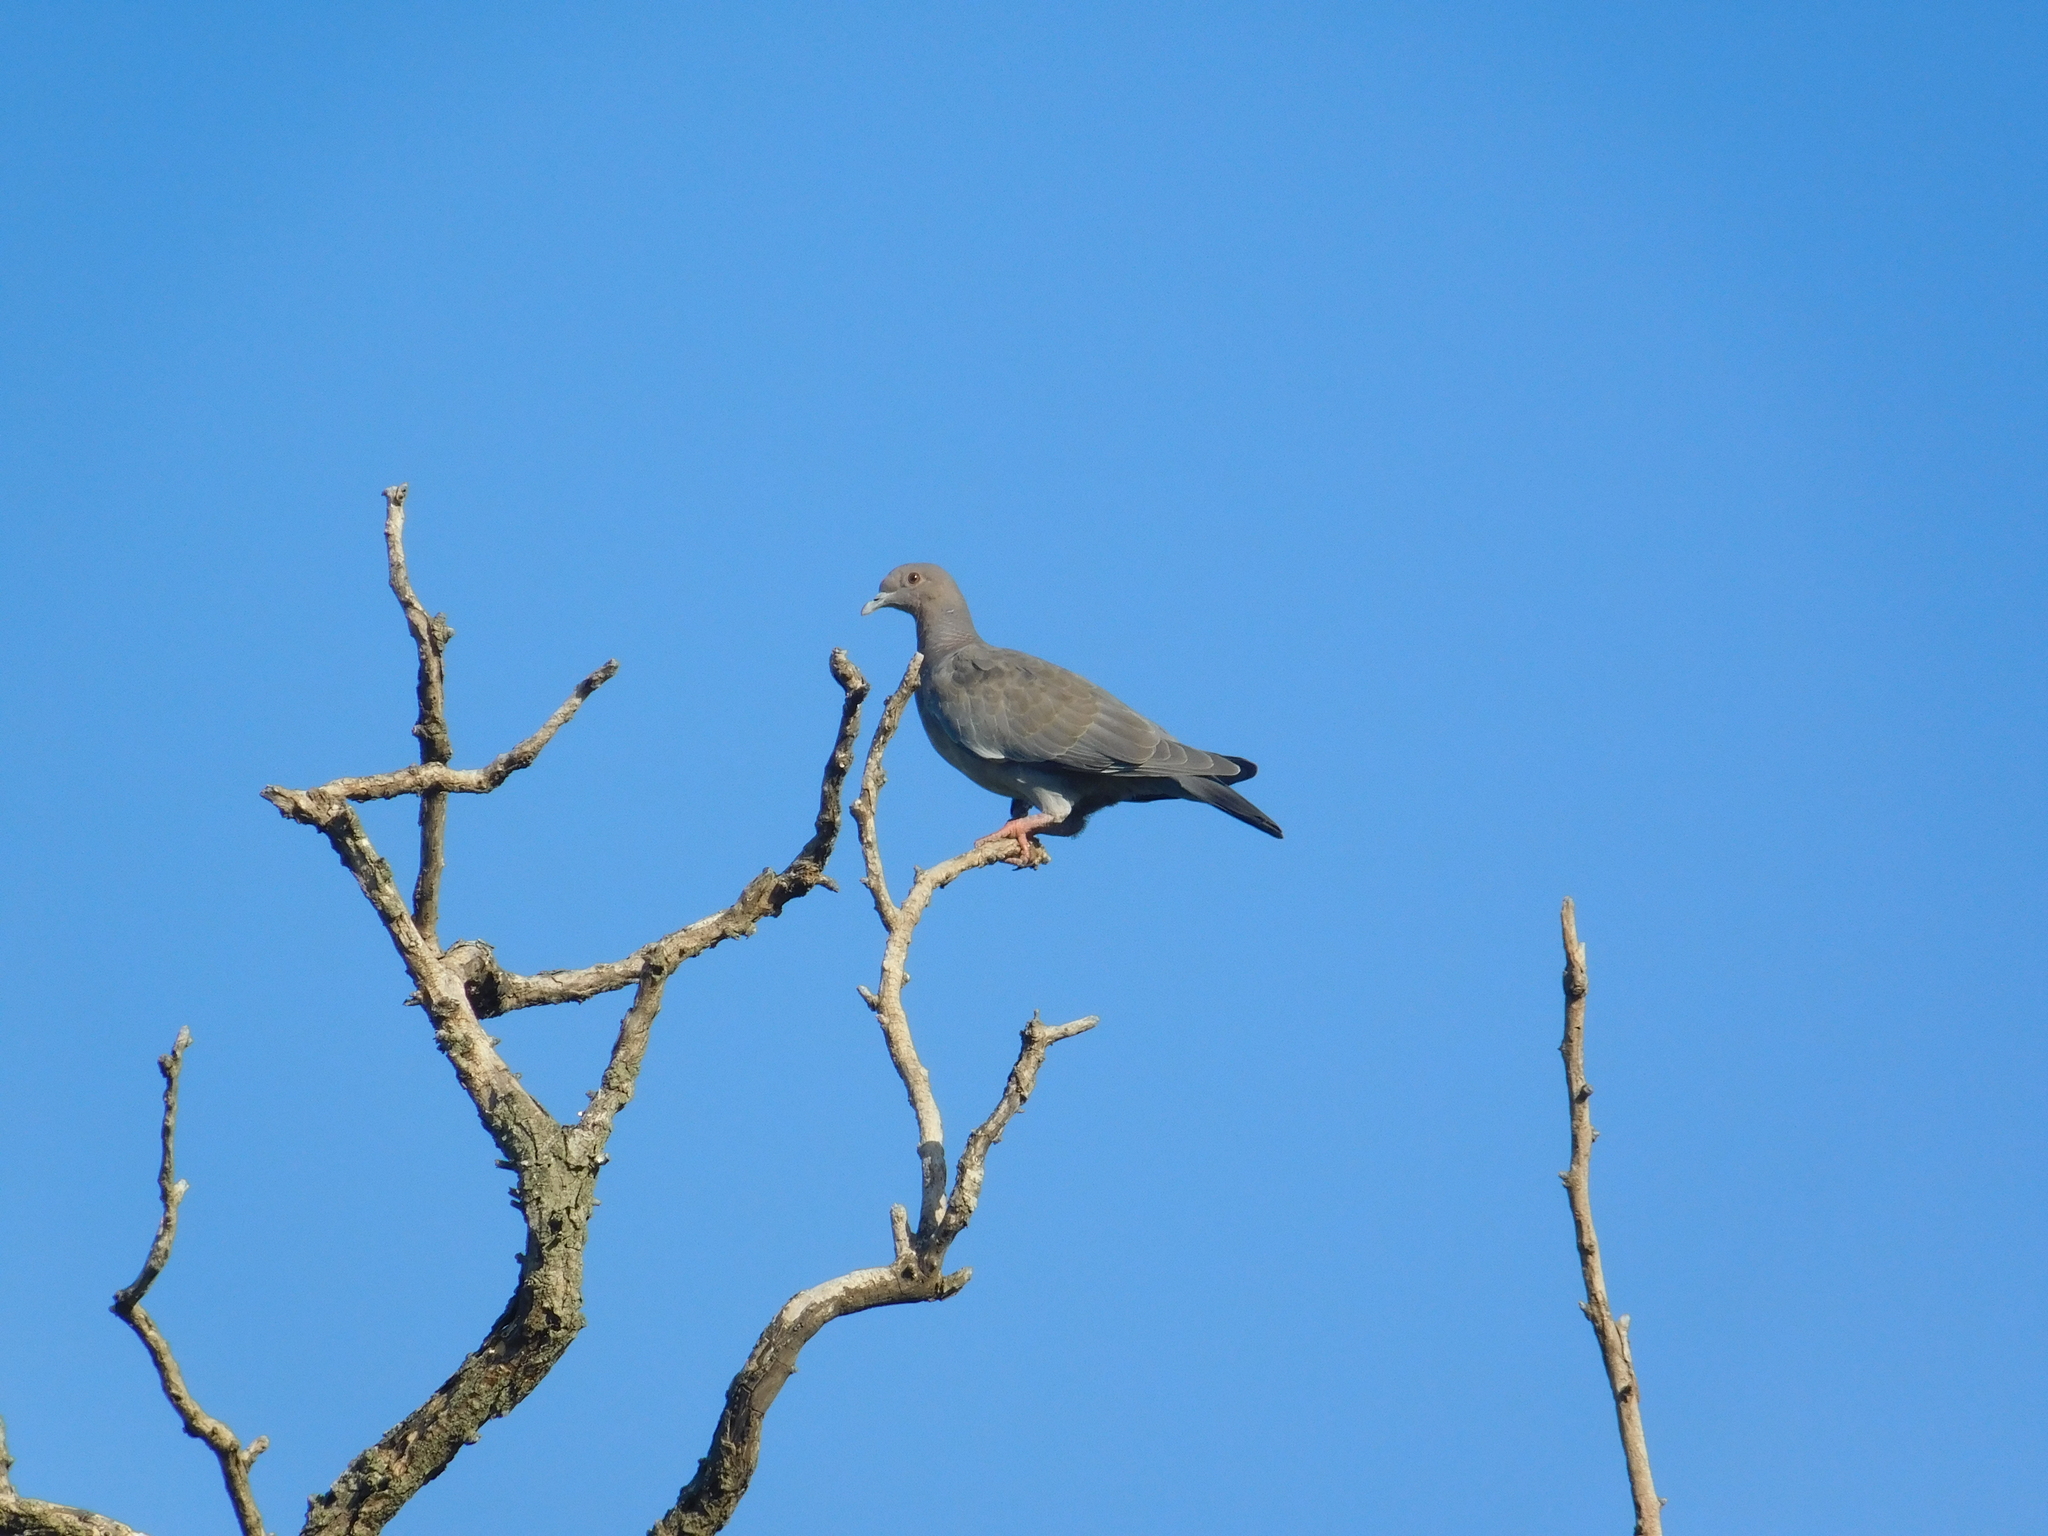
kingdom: Animalia
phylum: Chordata
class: Aves
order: Columbiformes
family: Columbidae
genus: Patagioenas
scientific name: Patagioenas picazuro
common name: Picazuro pigeon
